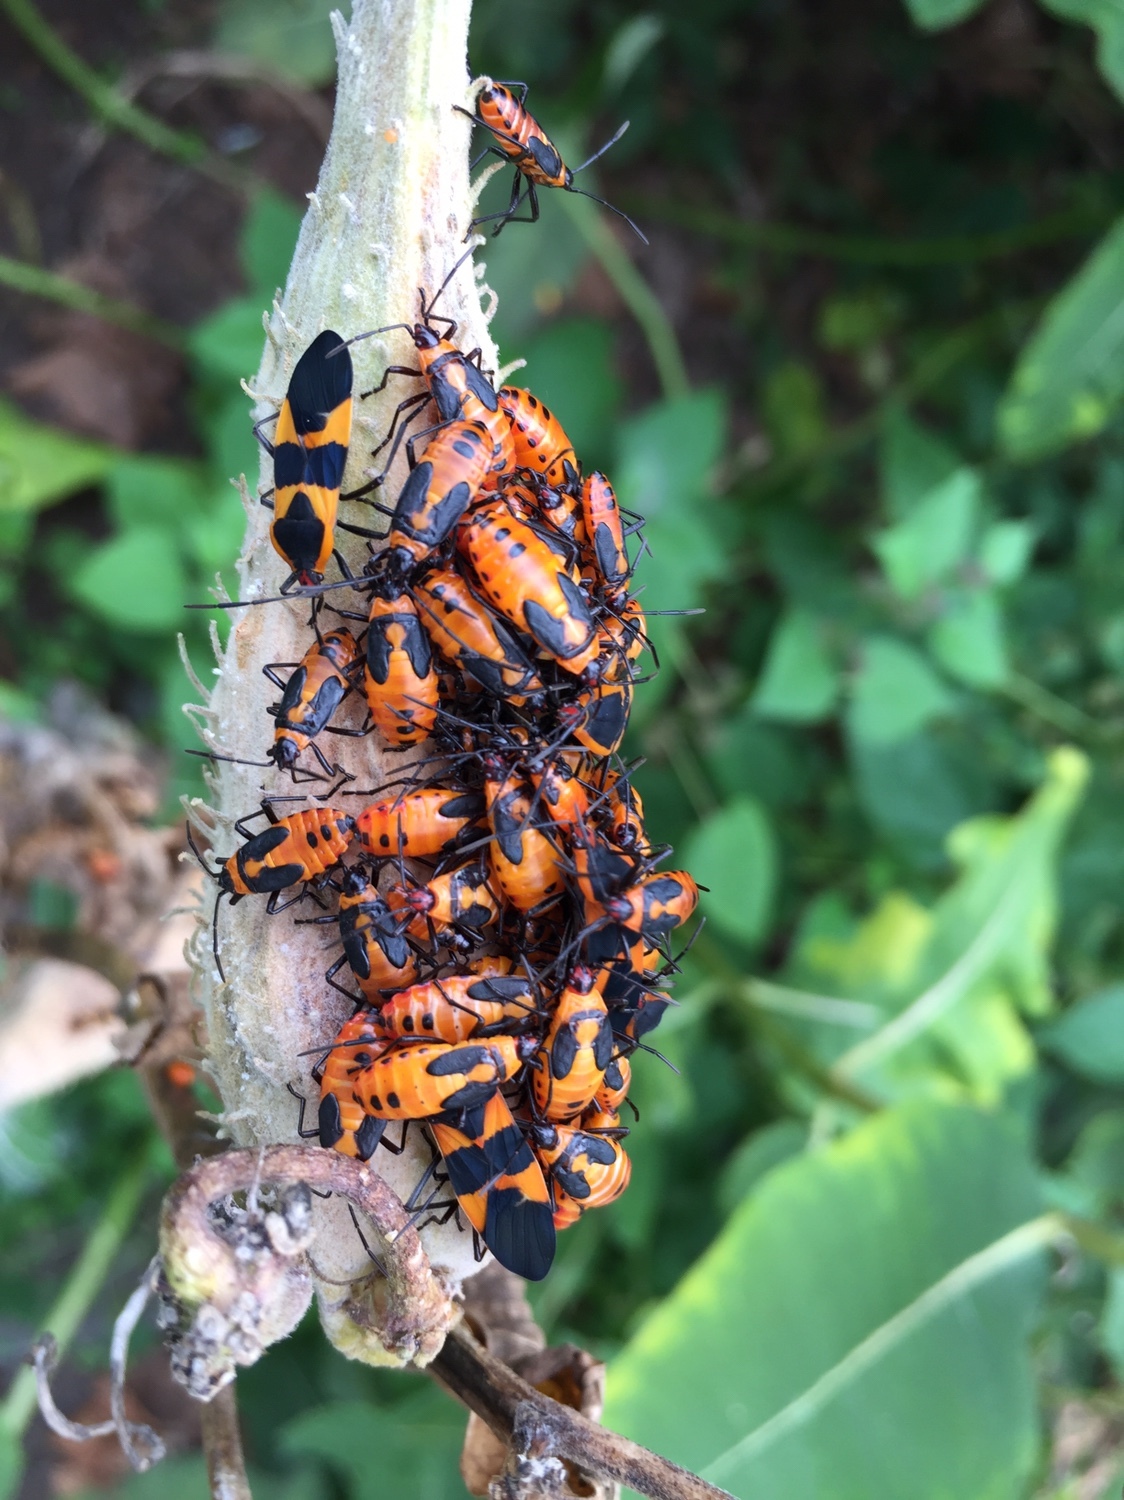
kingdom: Animalia
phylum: Arthropoda
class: Insecta
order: Hemiptera
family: Lygaeidae
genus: Oncopeltus
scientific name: Oncopeltus fasciatus
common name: Large milkweed bug
